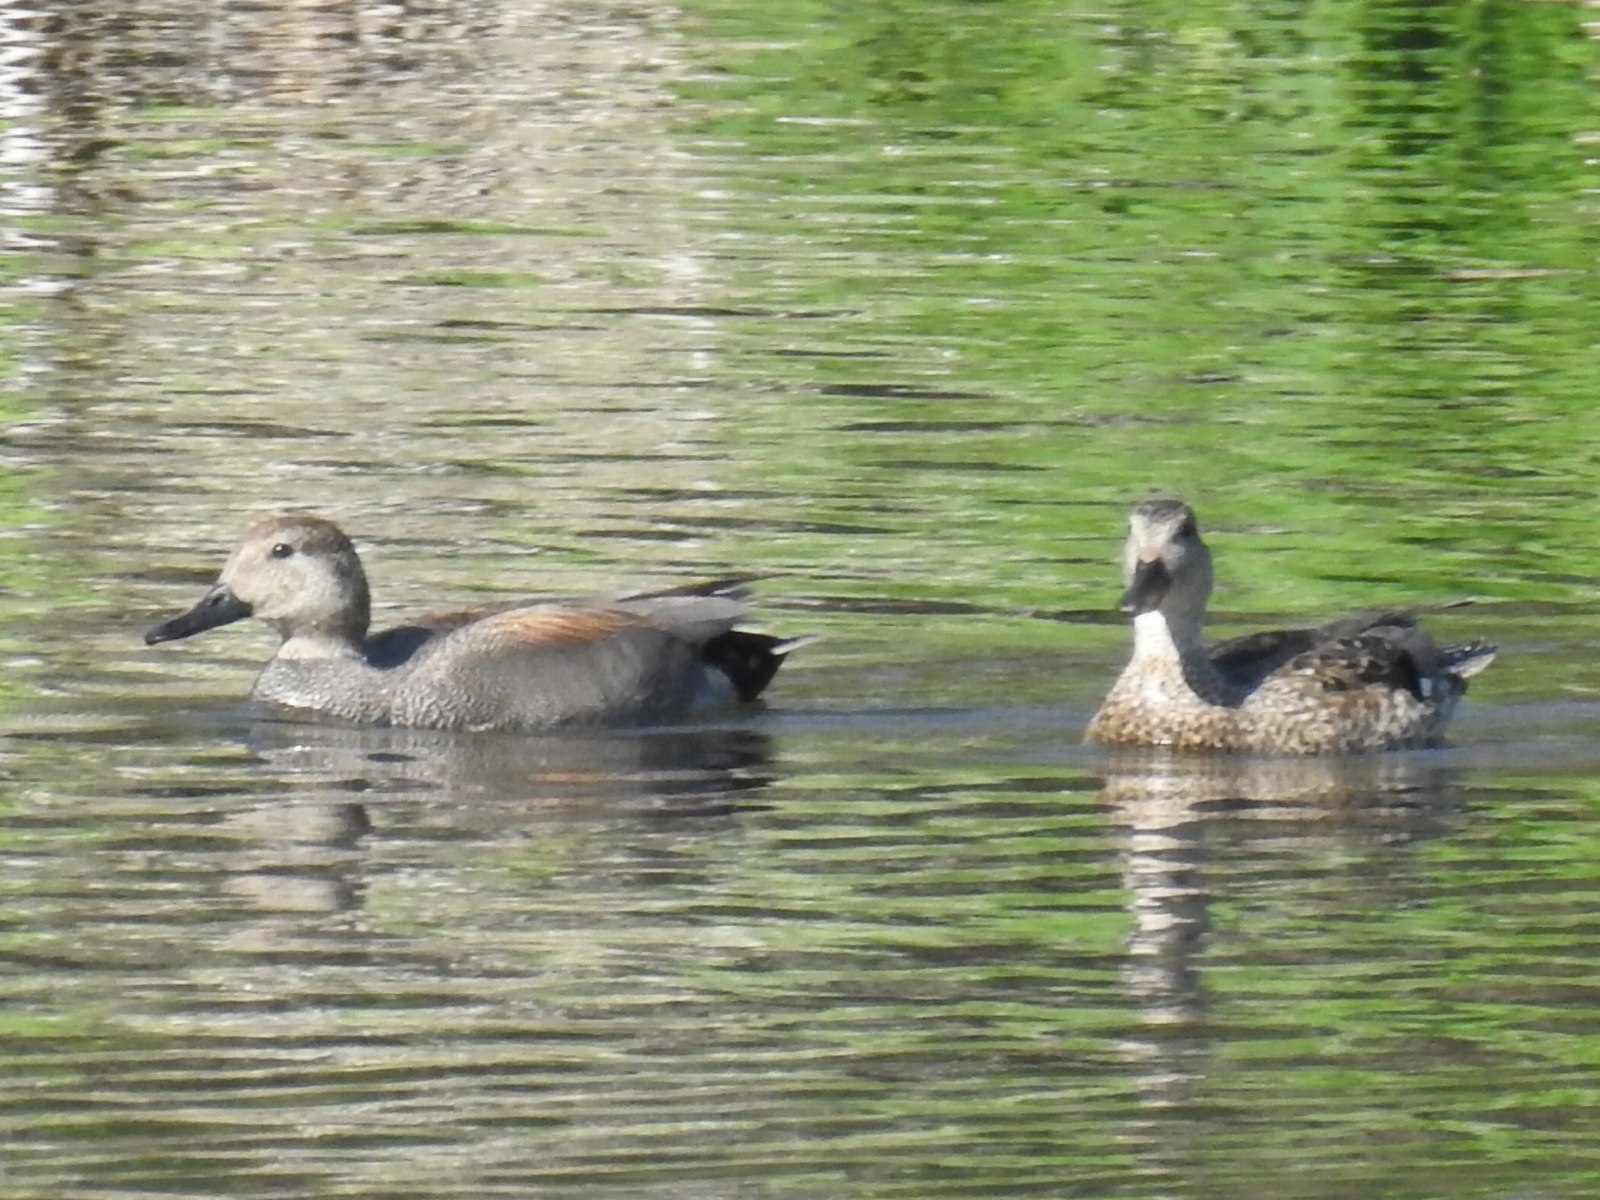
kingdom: Animalia
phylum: Chordata
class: Aves
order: Anseriformes
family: Anatidae
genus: Mareca
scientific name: Mareca strepera
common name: Gadwall
